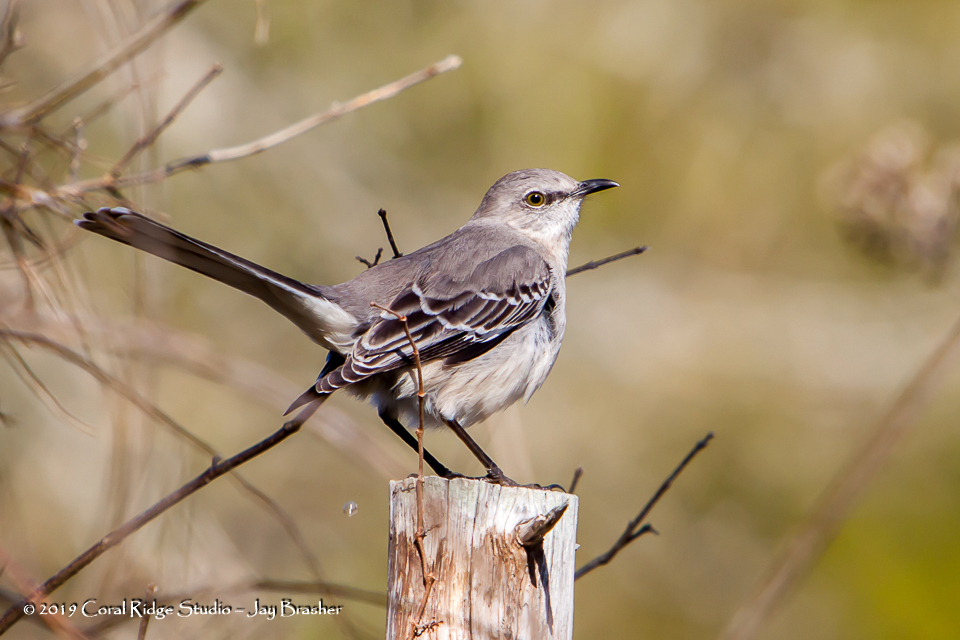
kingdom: Animalia
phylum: Chordata
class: Aves
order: Passeriformes
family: Mimidae
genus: Mimus
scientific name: Mimus polyglottos
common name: Northern mockingbird
